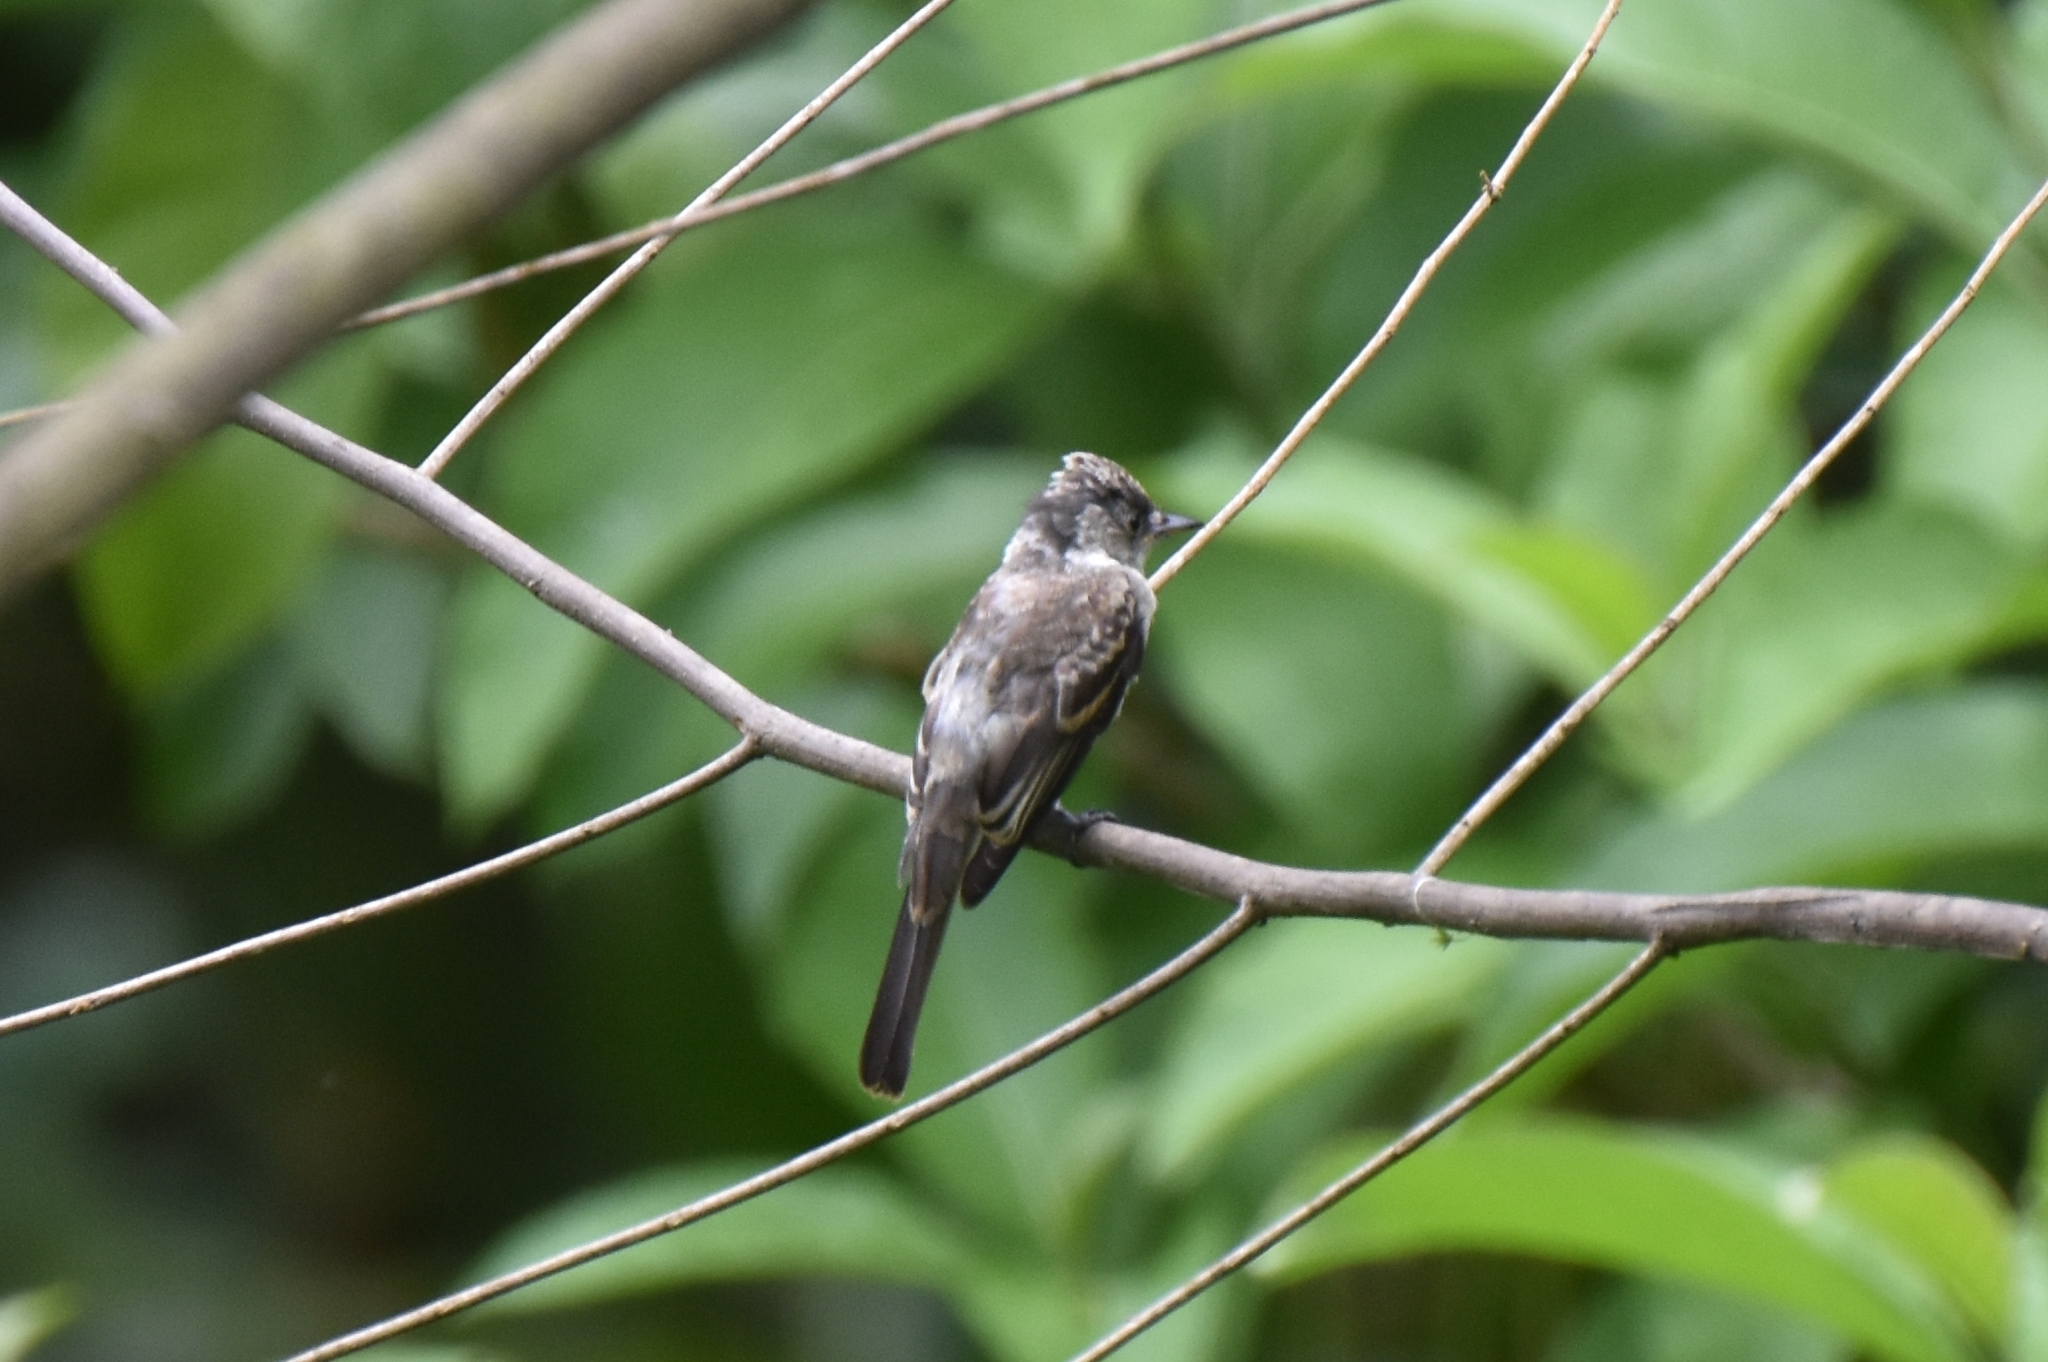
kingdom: Animalia
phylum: Chordata
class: Aves
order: Passeriformes
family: Tyrannidae
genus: Contopus
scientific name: Contopus cinereus
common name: Tropical pewee
